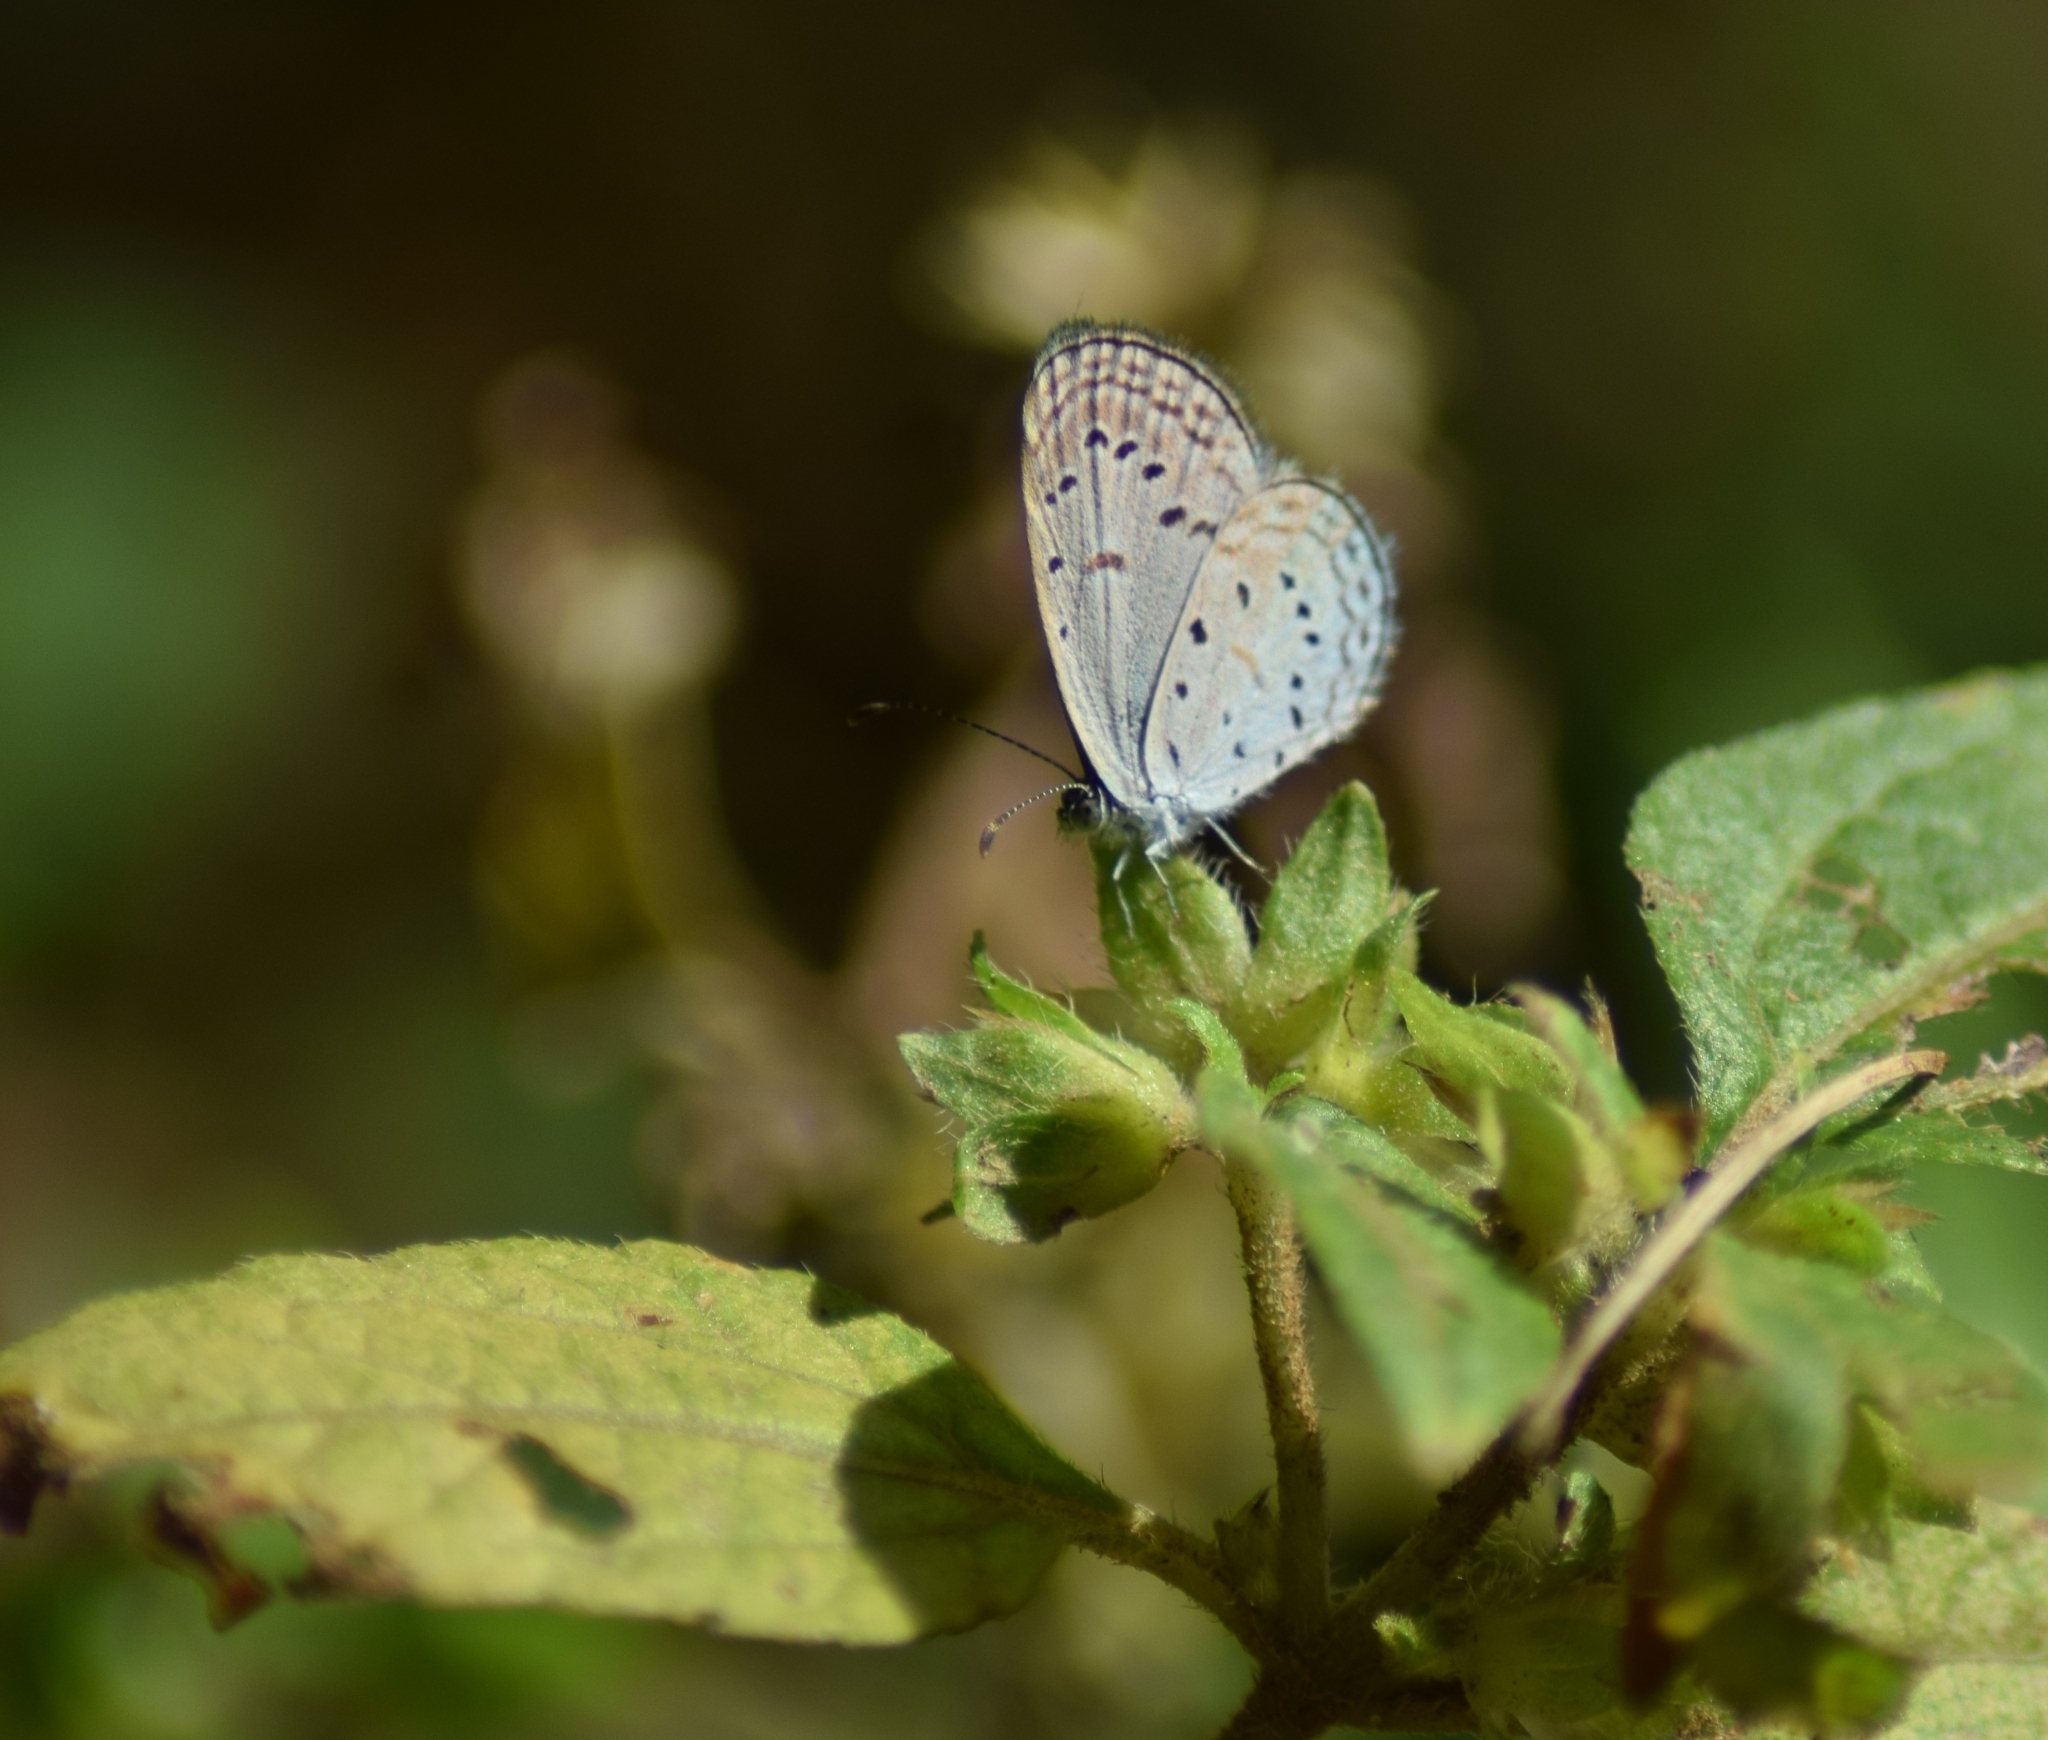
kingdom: Animalia
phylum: Arthropoda
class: Insecta
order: Lepidoptera
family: Lycaenidae
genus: Zizula
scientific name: Zizula hylax
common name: Gaika blue
